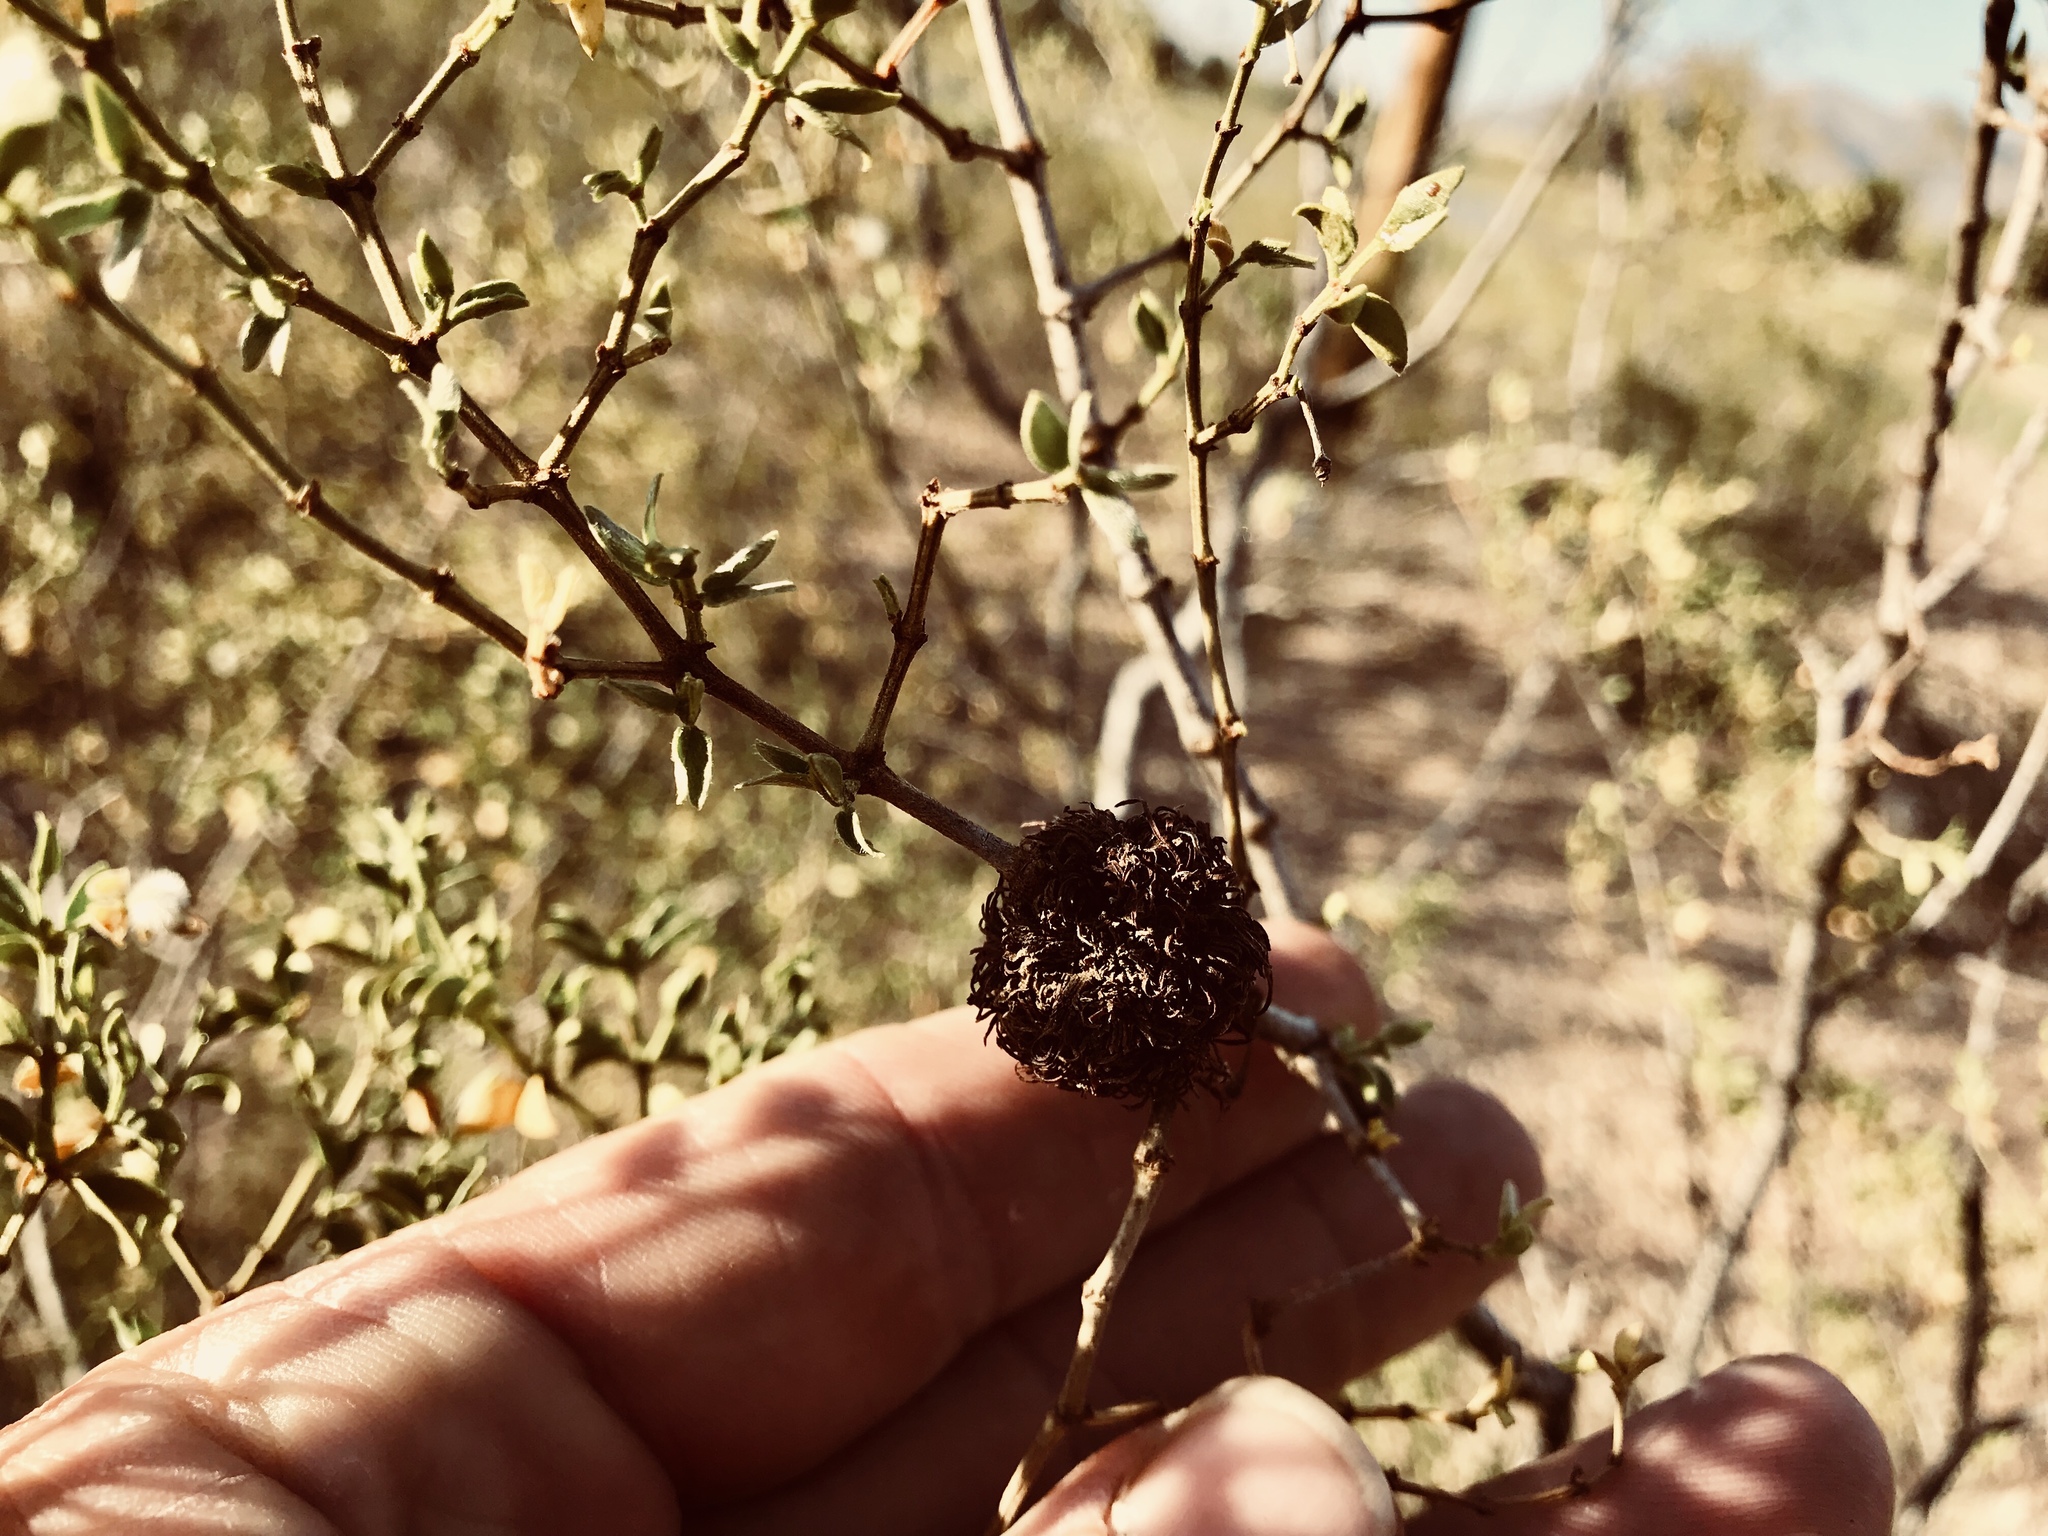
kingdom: Animalia
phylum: Arthropoda
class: Insecta
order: Diptera
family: Cecidomyiidae
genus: Asphondylia
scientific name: Asphondylia auripila
